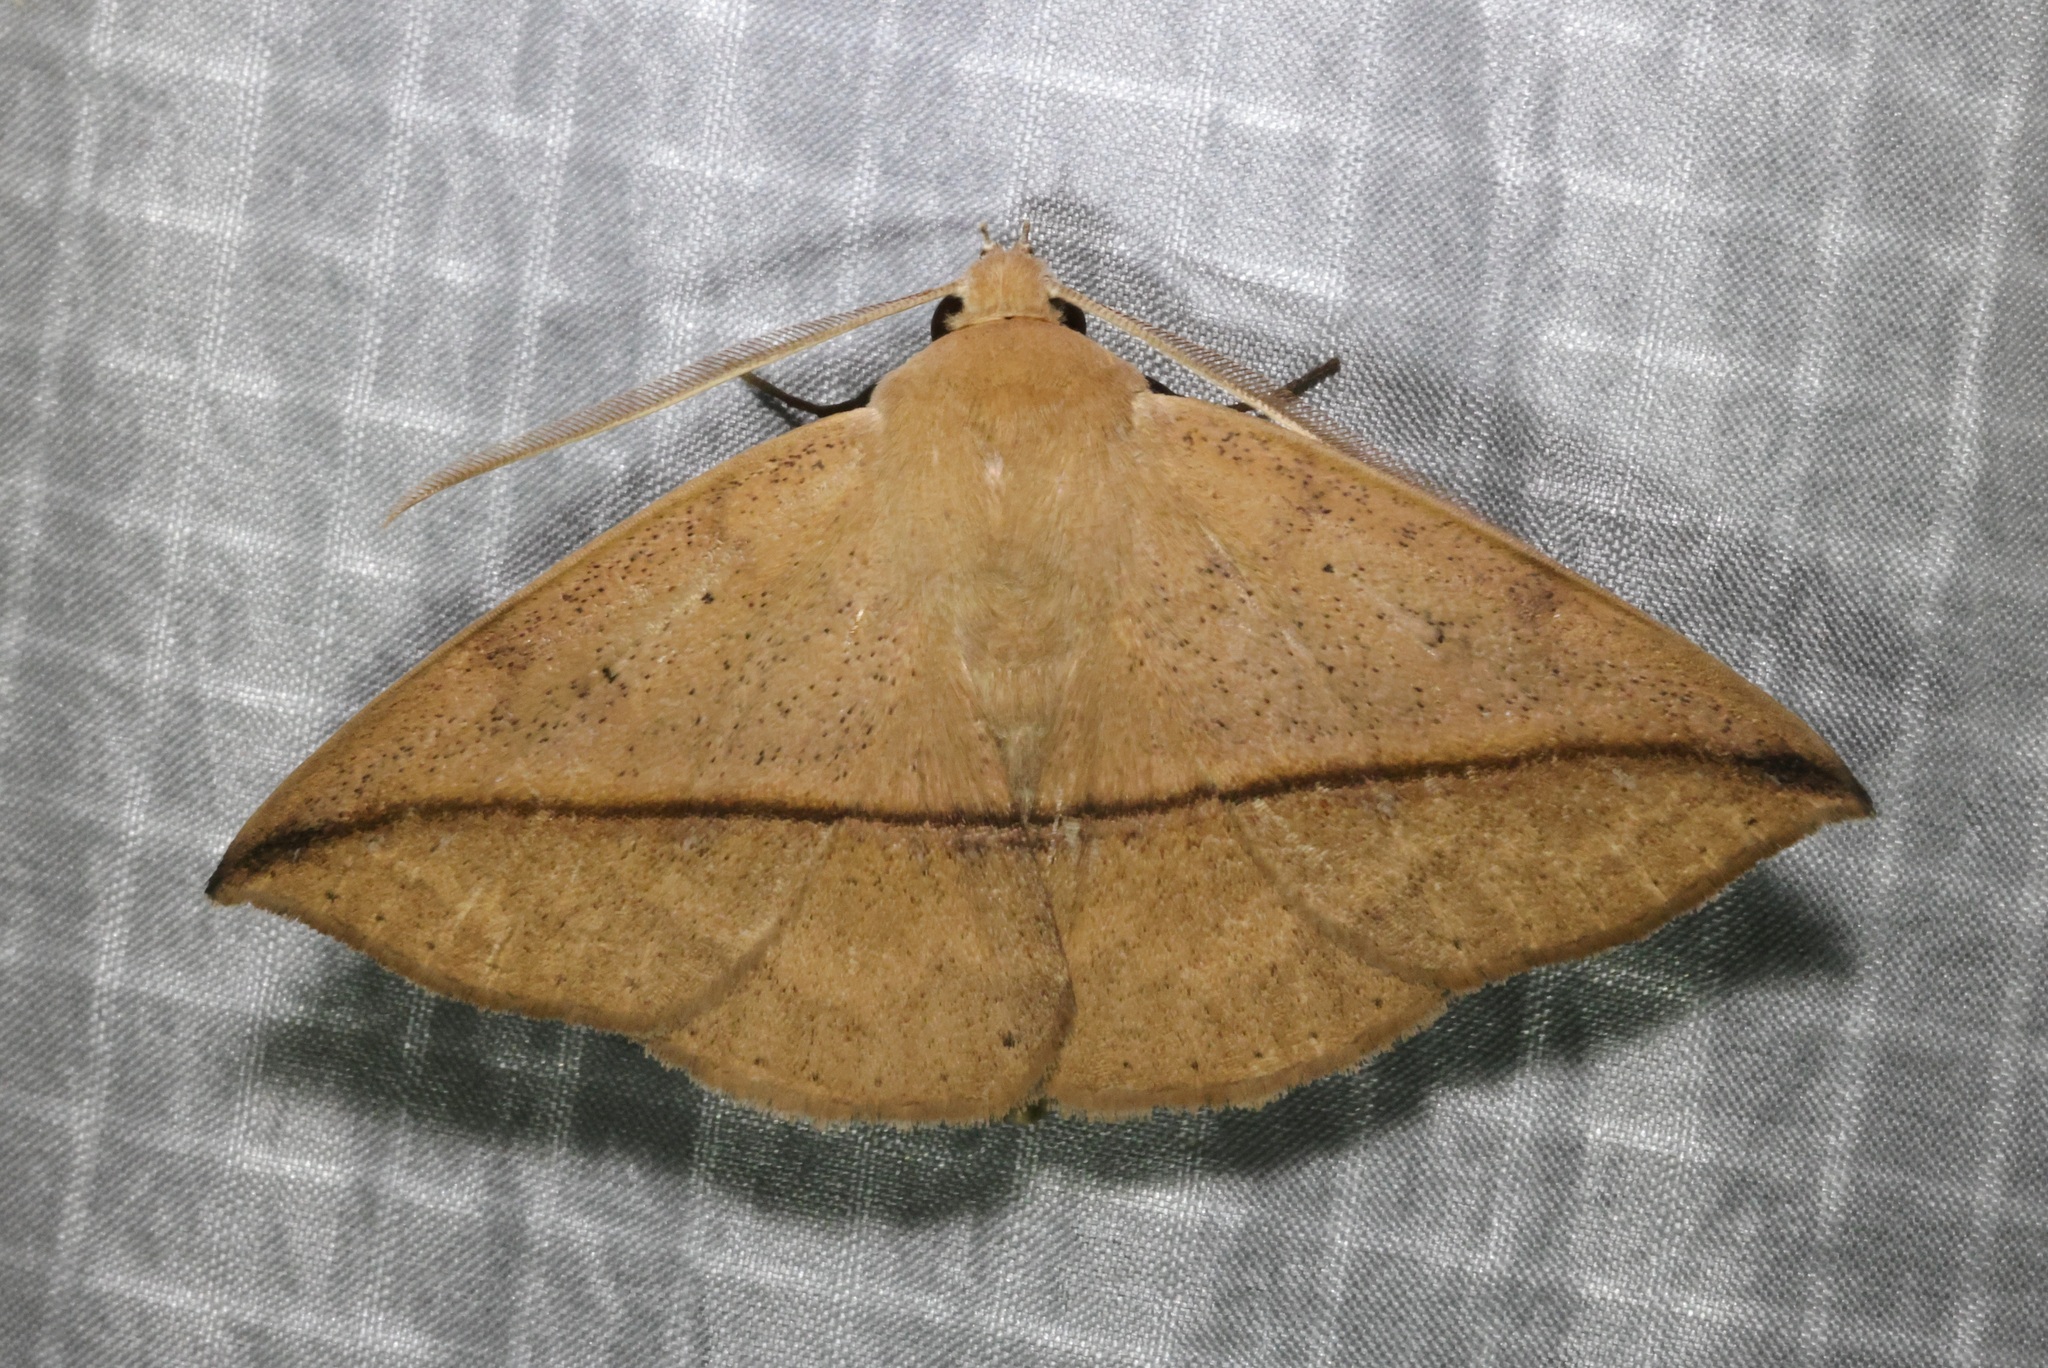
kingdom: Animalia
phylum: Arthropoda
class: Insecta
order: Lepidoptera
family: Erebidae
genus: Ugia
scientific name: Ugia purpurea
